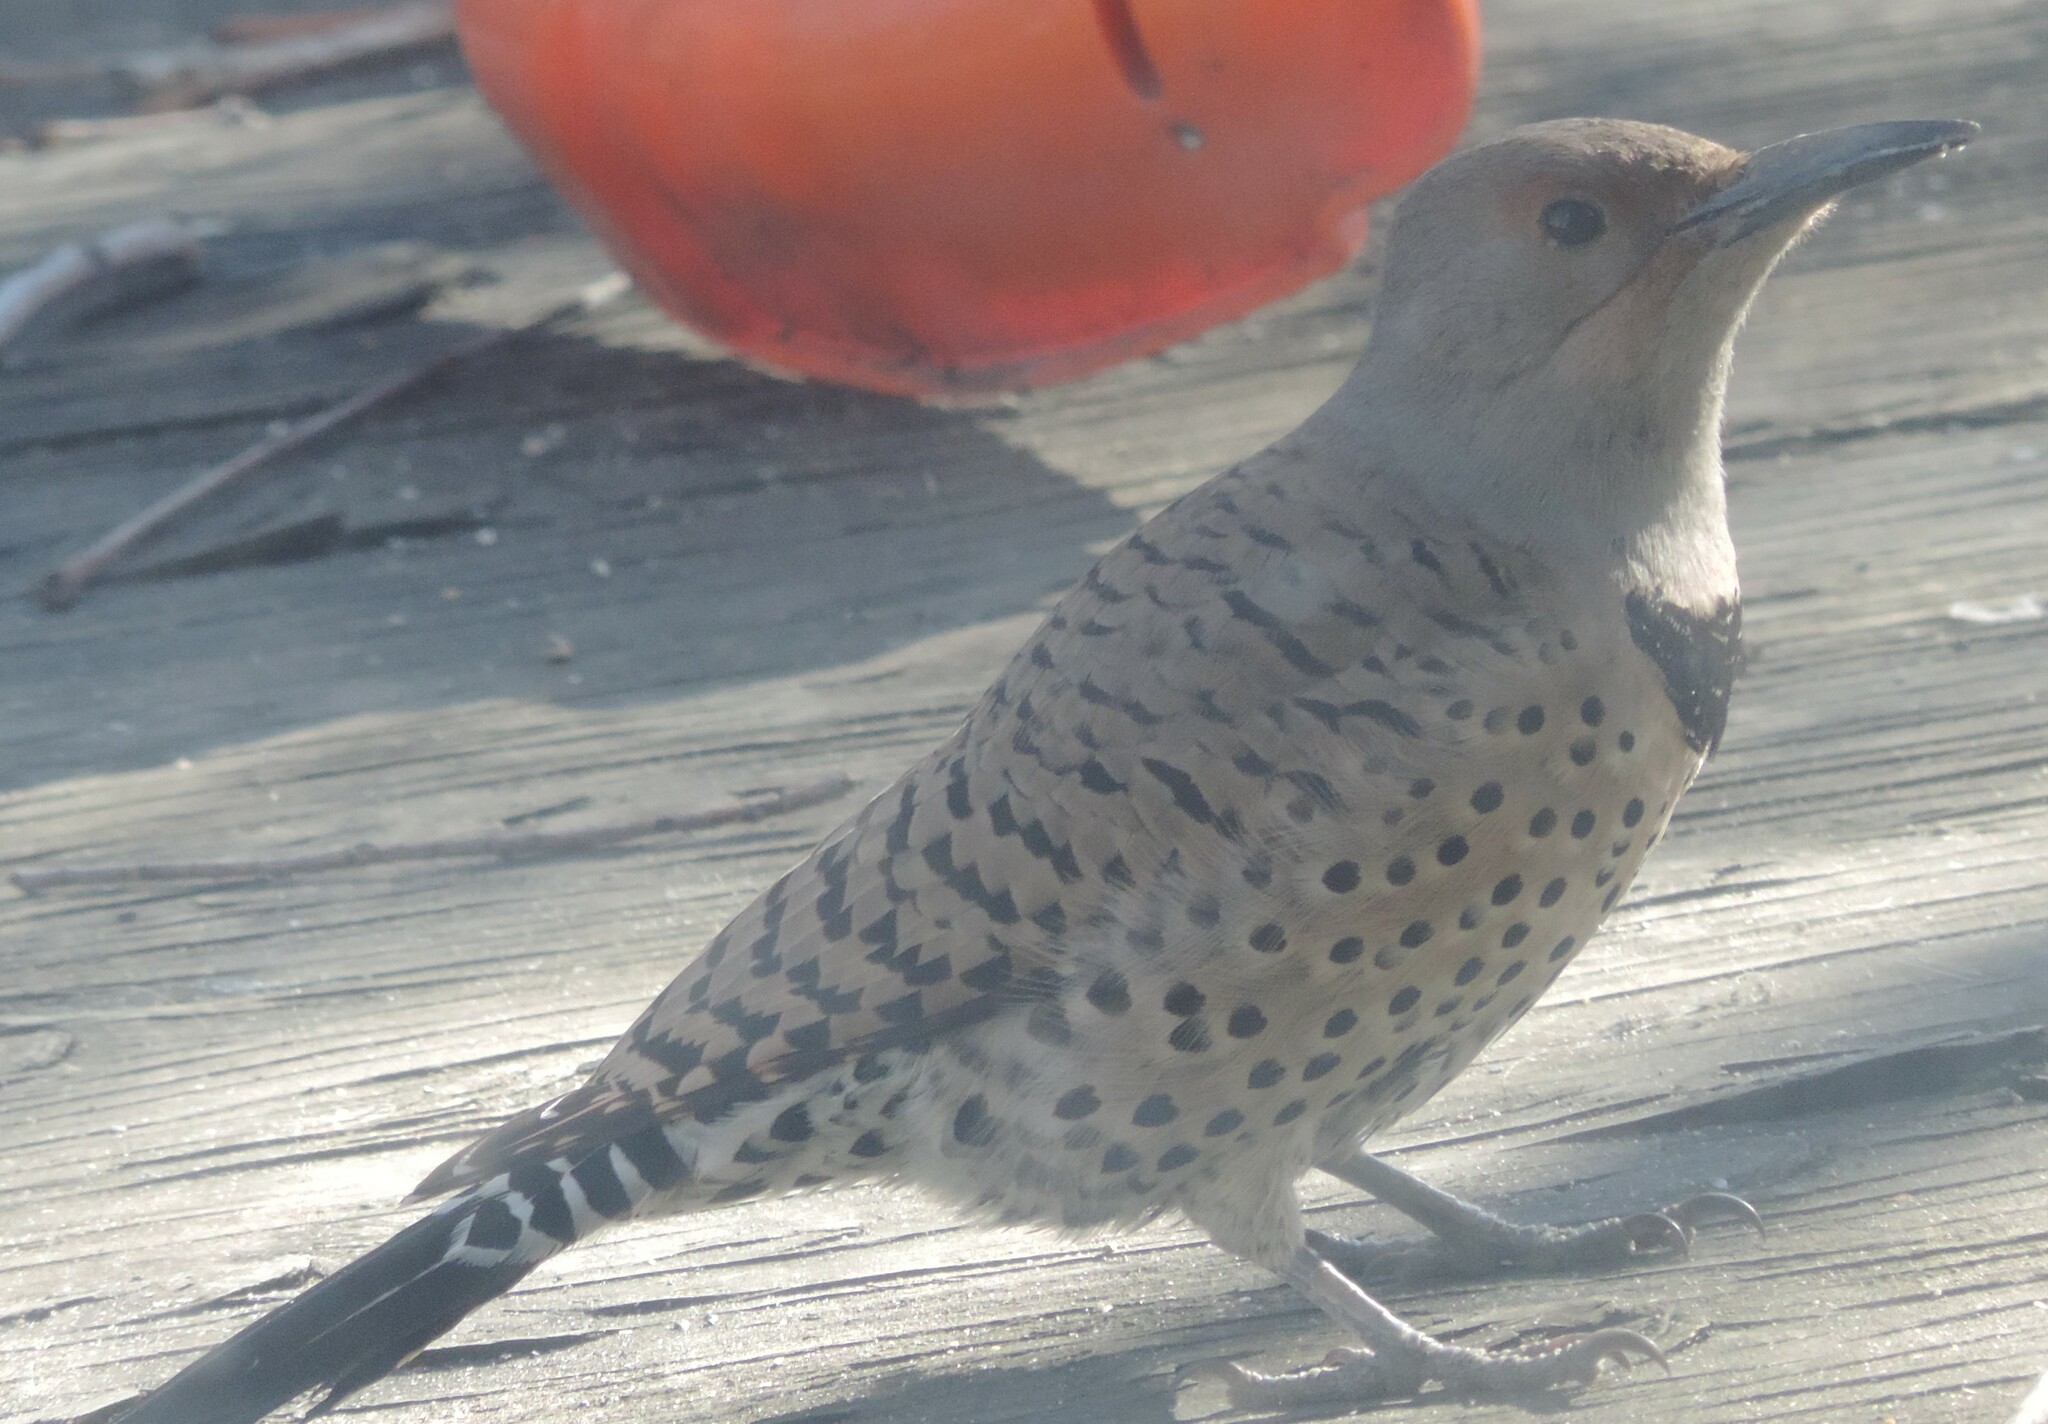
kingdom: Animalia
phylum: Chordata
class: Aves
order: Piciformes
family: Picidae
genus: Colaptes
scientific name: Colaptes auratus
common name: Northern flicker
